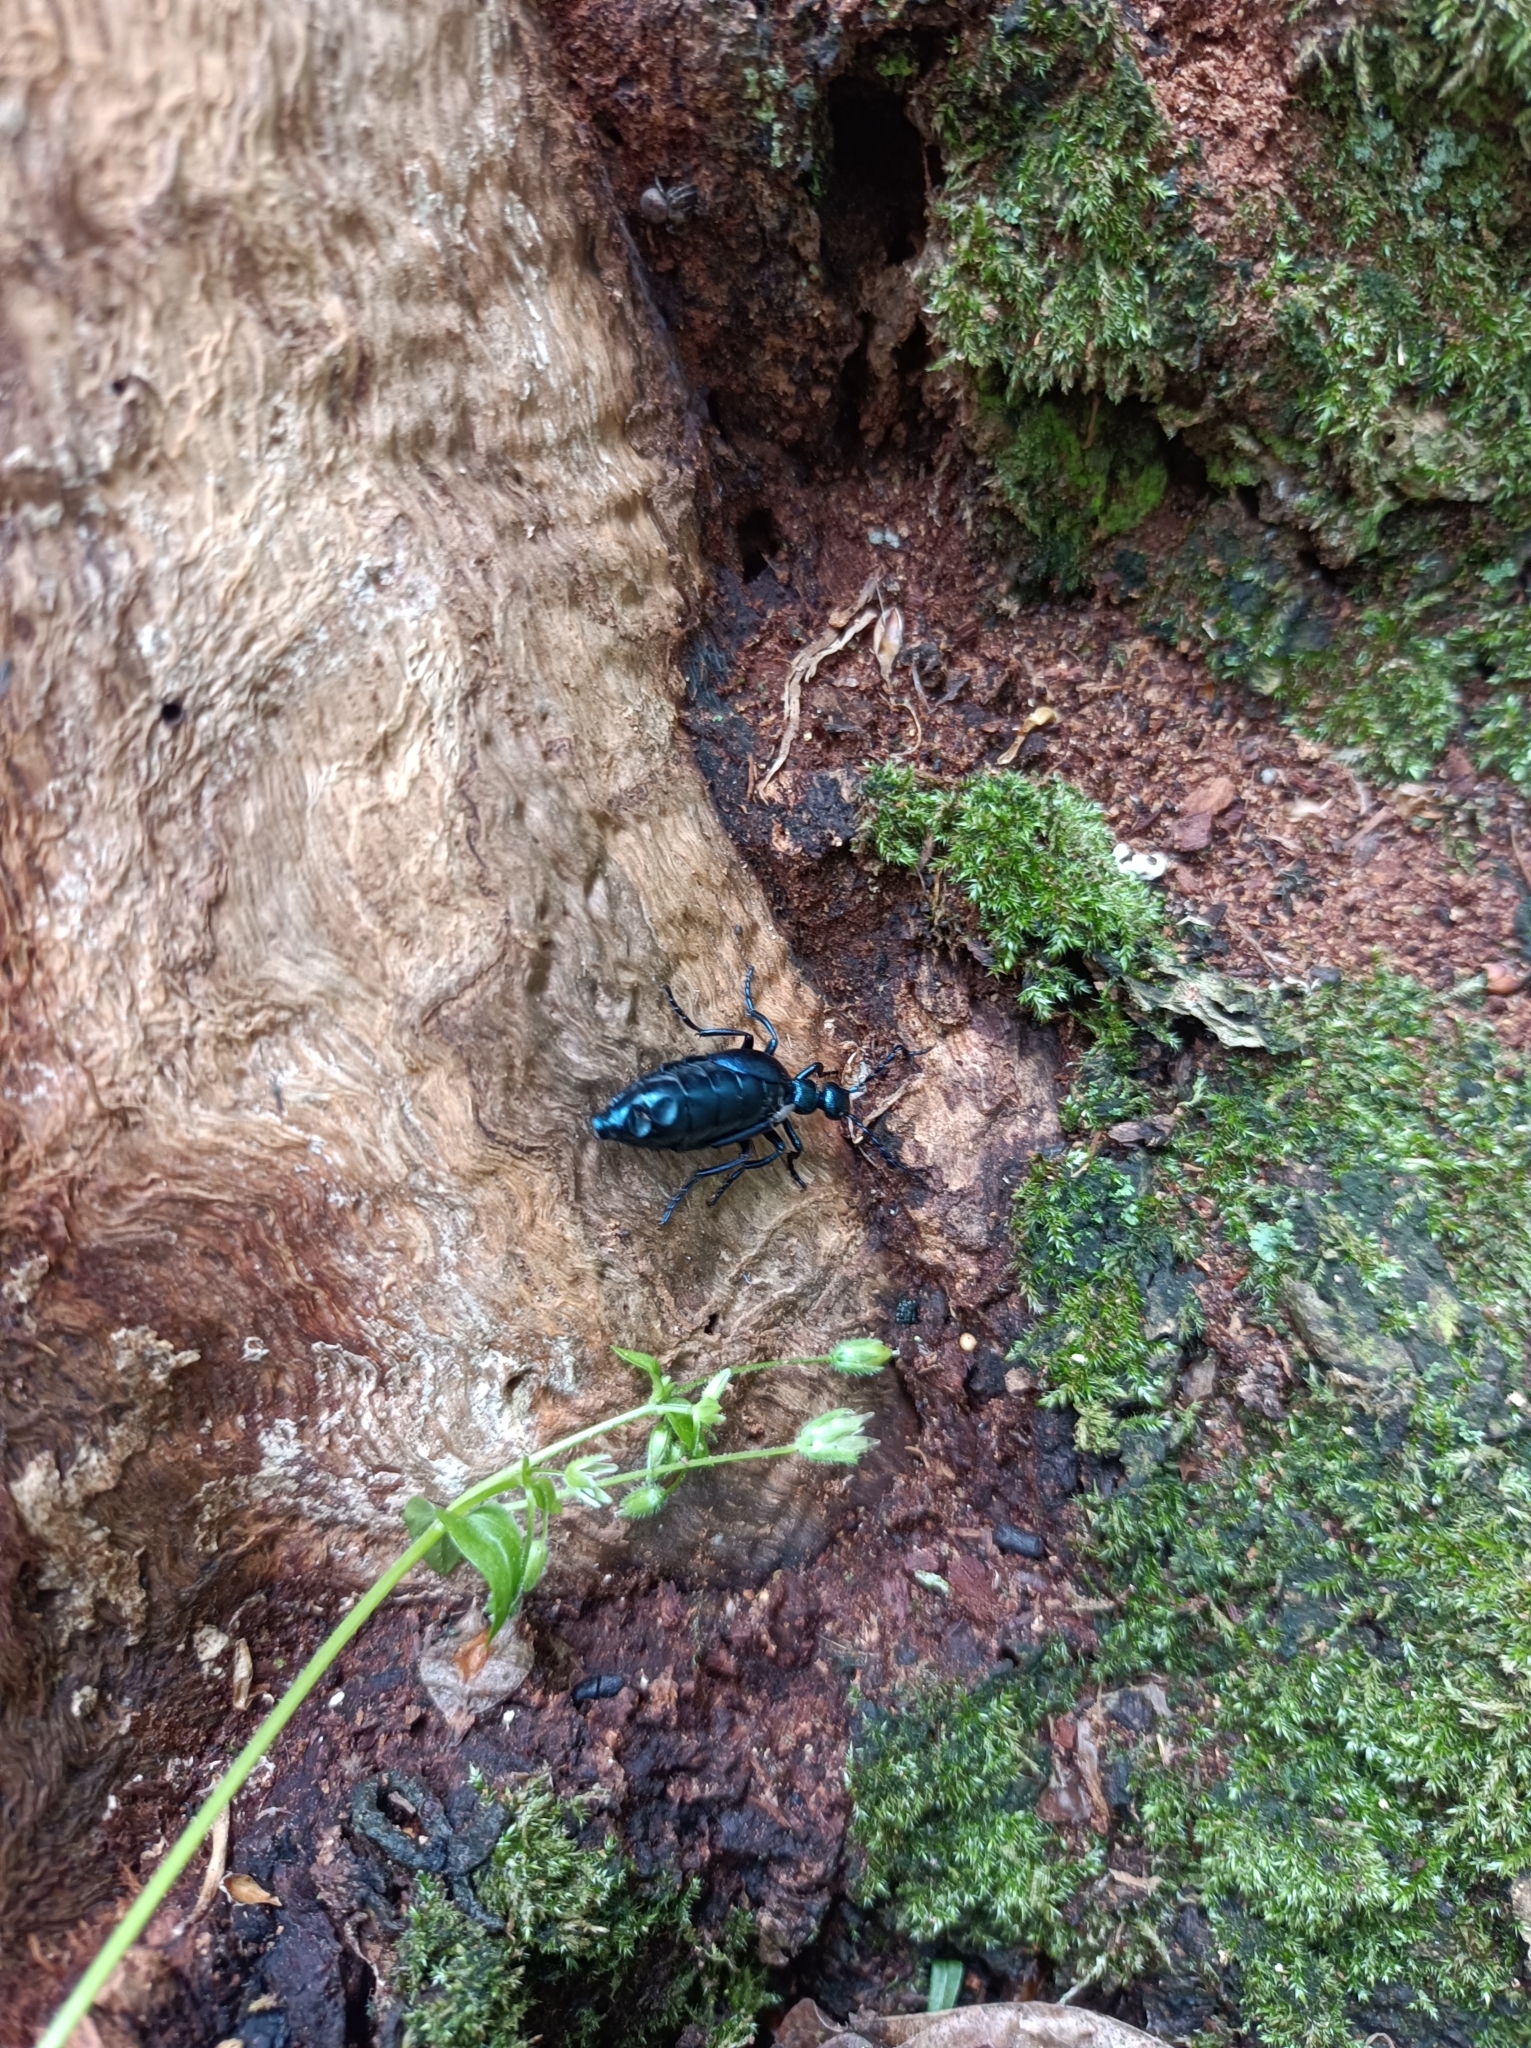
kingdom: Animalia
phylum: Arthropoda
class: Insecta
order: Coleoptera
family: Meloidae
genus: Meloe
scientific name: Meloe violaceus
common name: Violet oil-beetle
